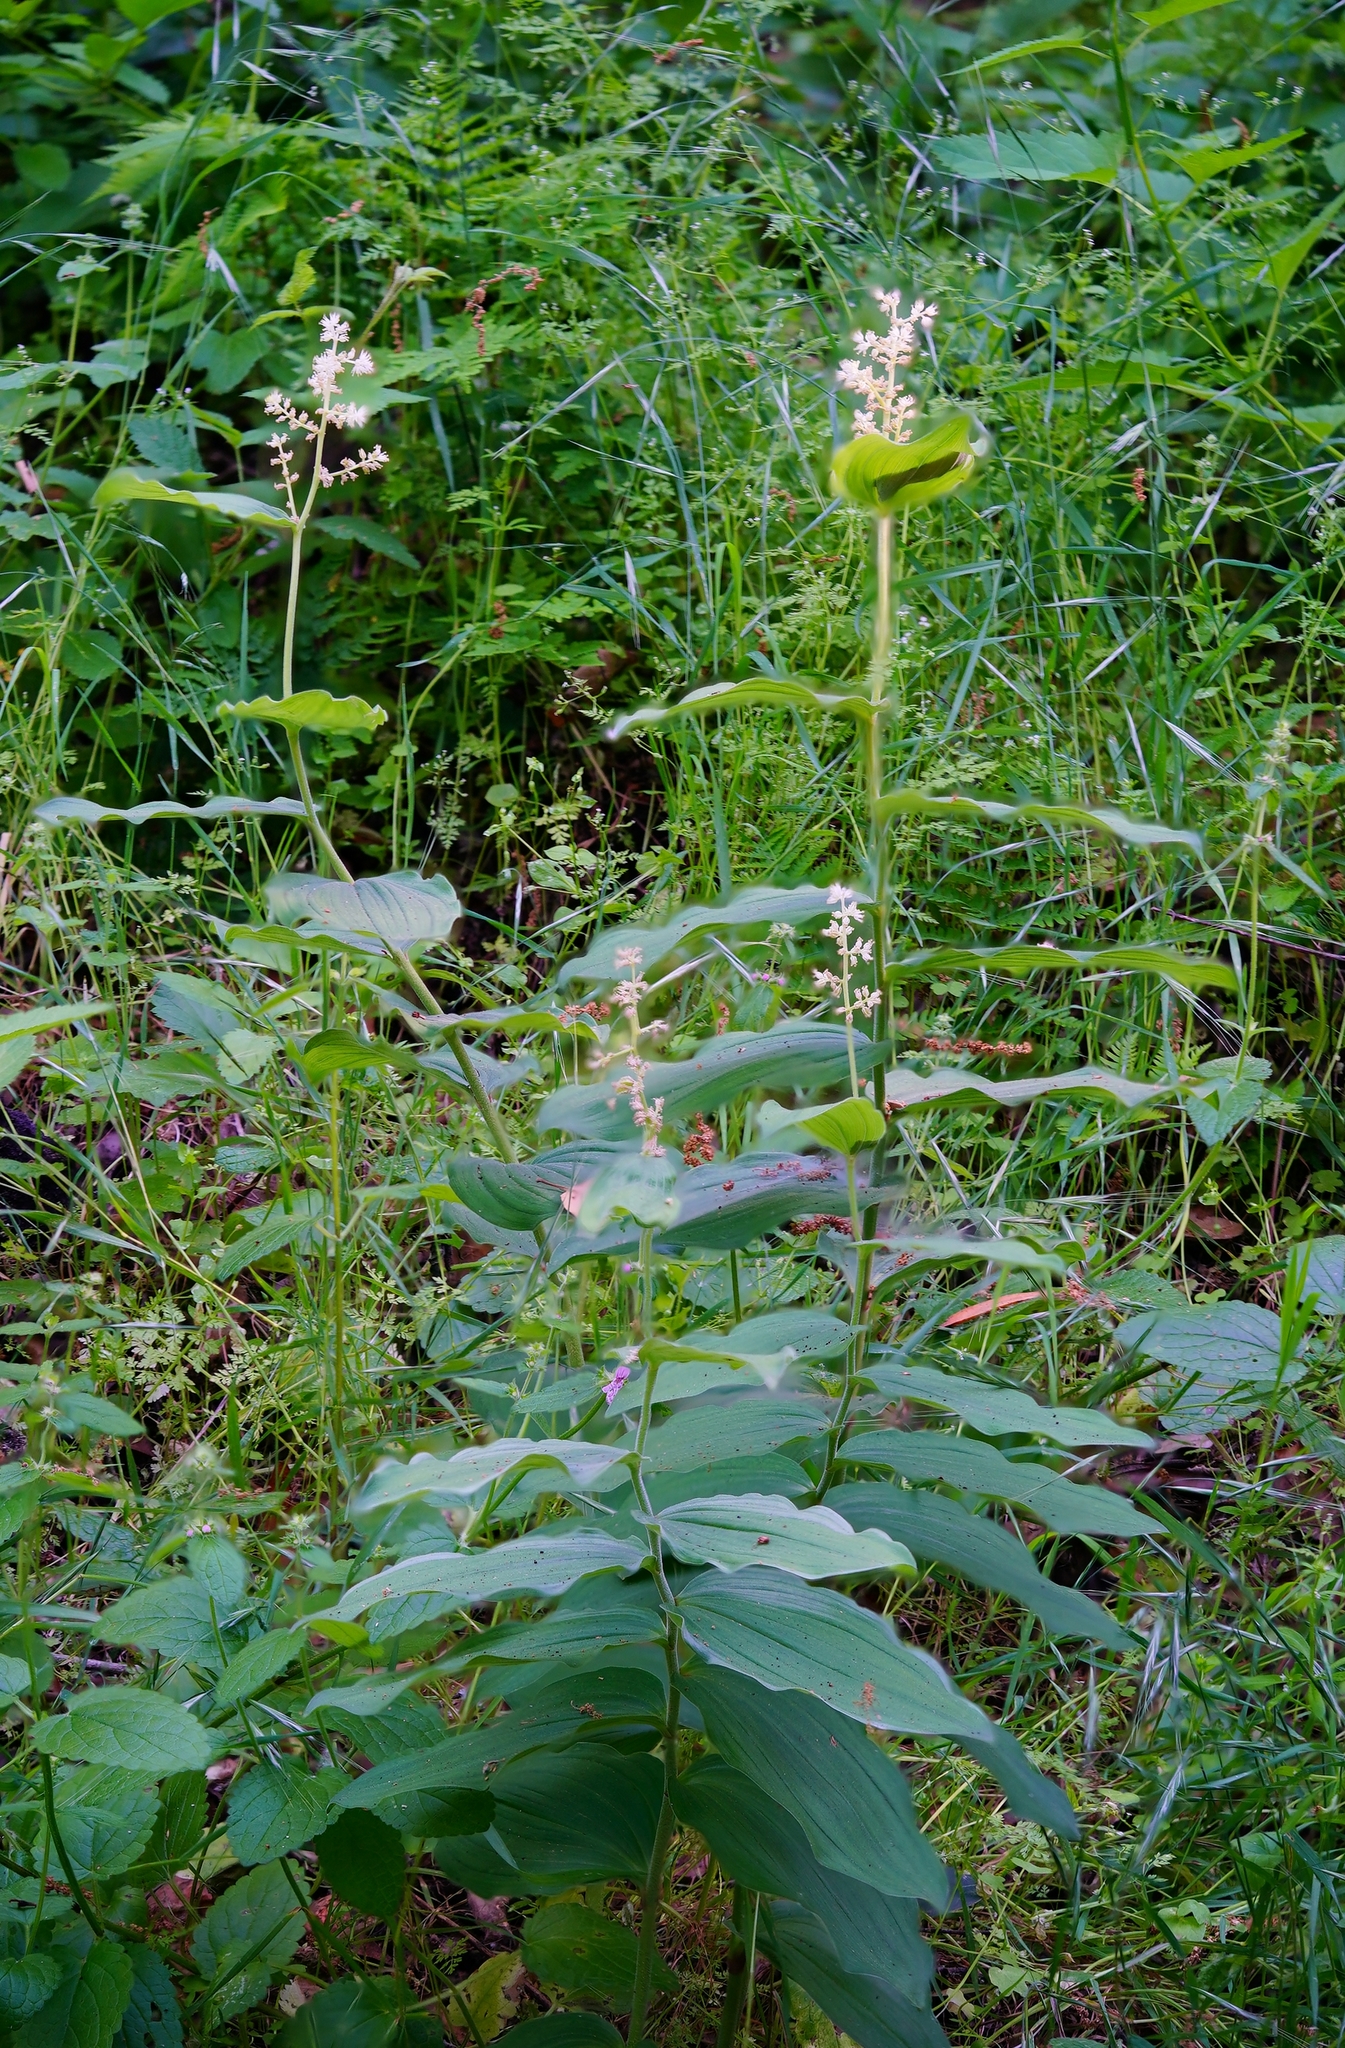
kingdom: Plantae
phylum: Tracheophyta
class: Liliopsida
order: Asparagales
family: Asparagaceae
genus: Maianthemum
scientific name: Maianthemum racemosum
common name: False spikenard
